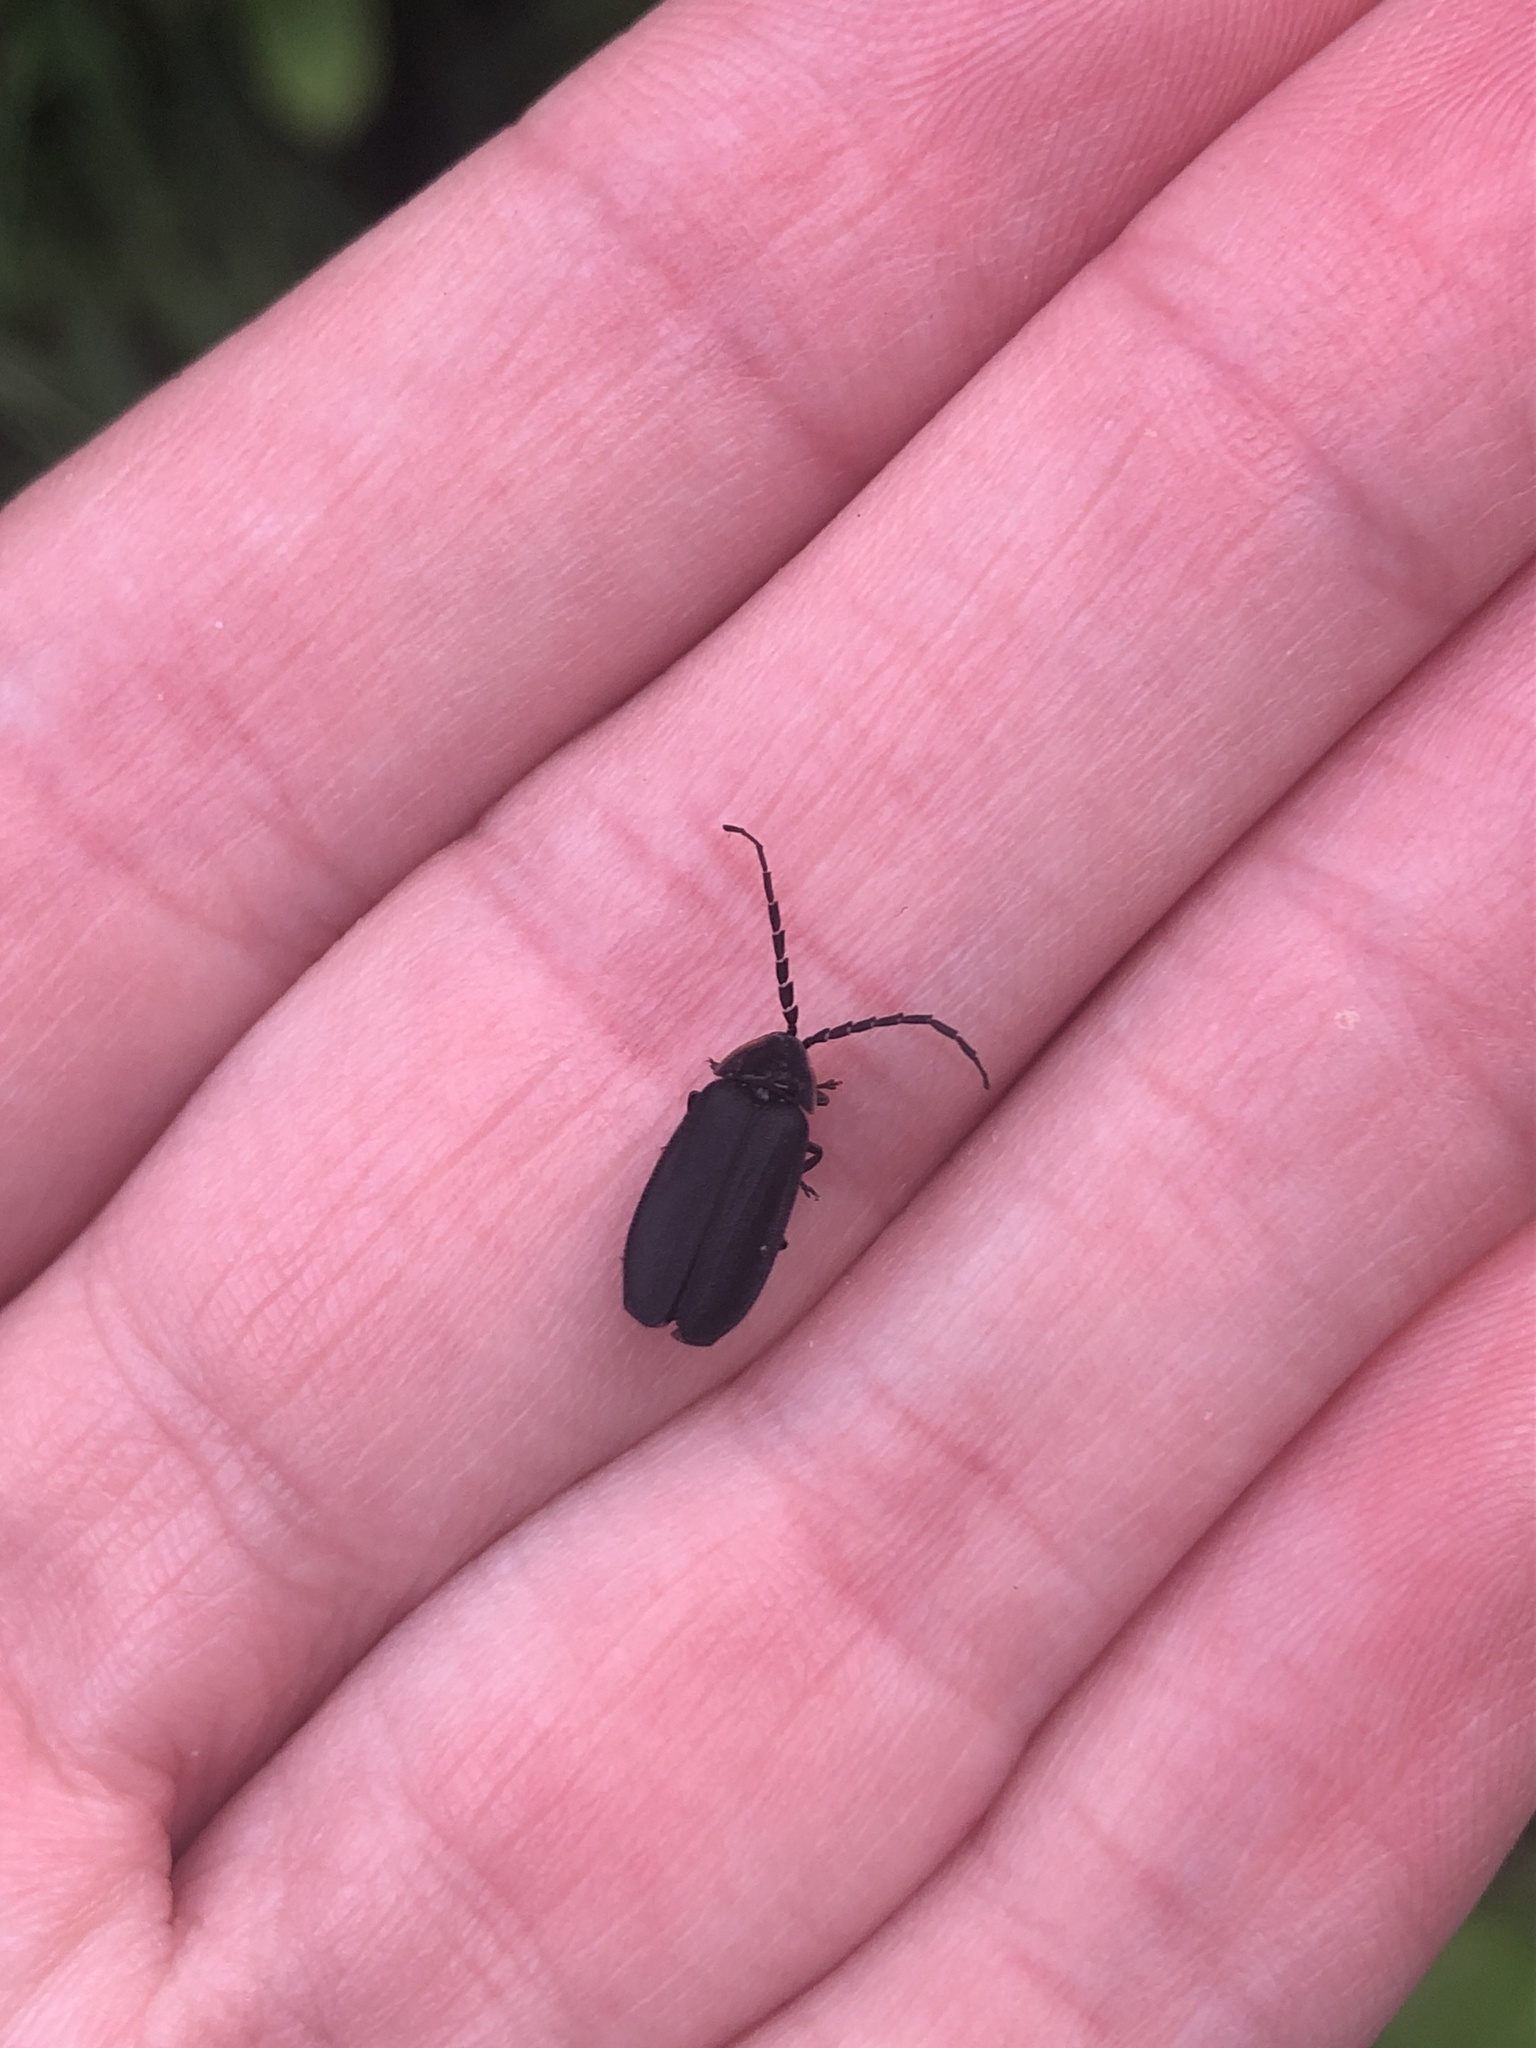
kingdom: Animalia
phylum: Arthropoda
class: Insecta
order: Coleoptera
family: Lampyridae
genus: Lucidota
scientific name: Lucidota atra
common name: Black firefly
